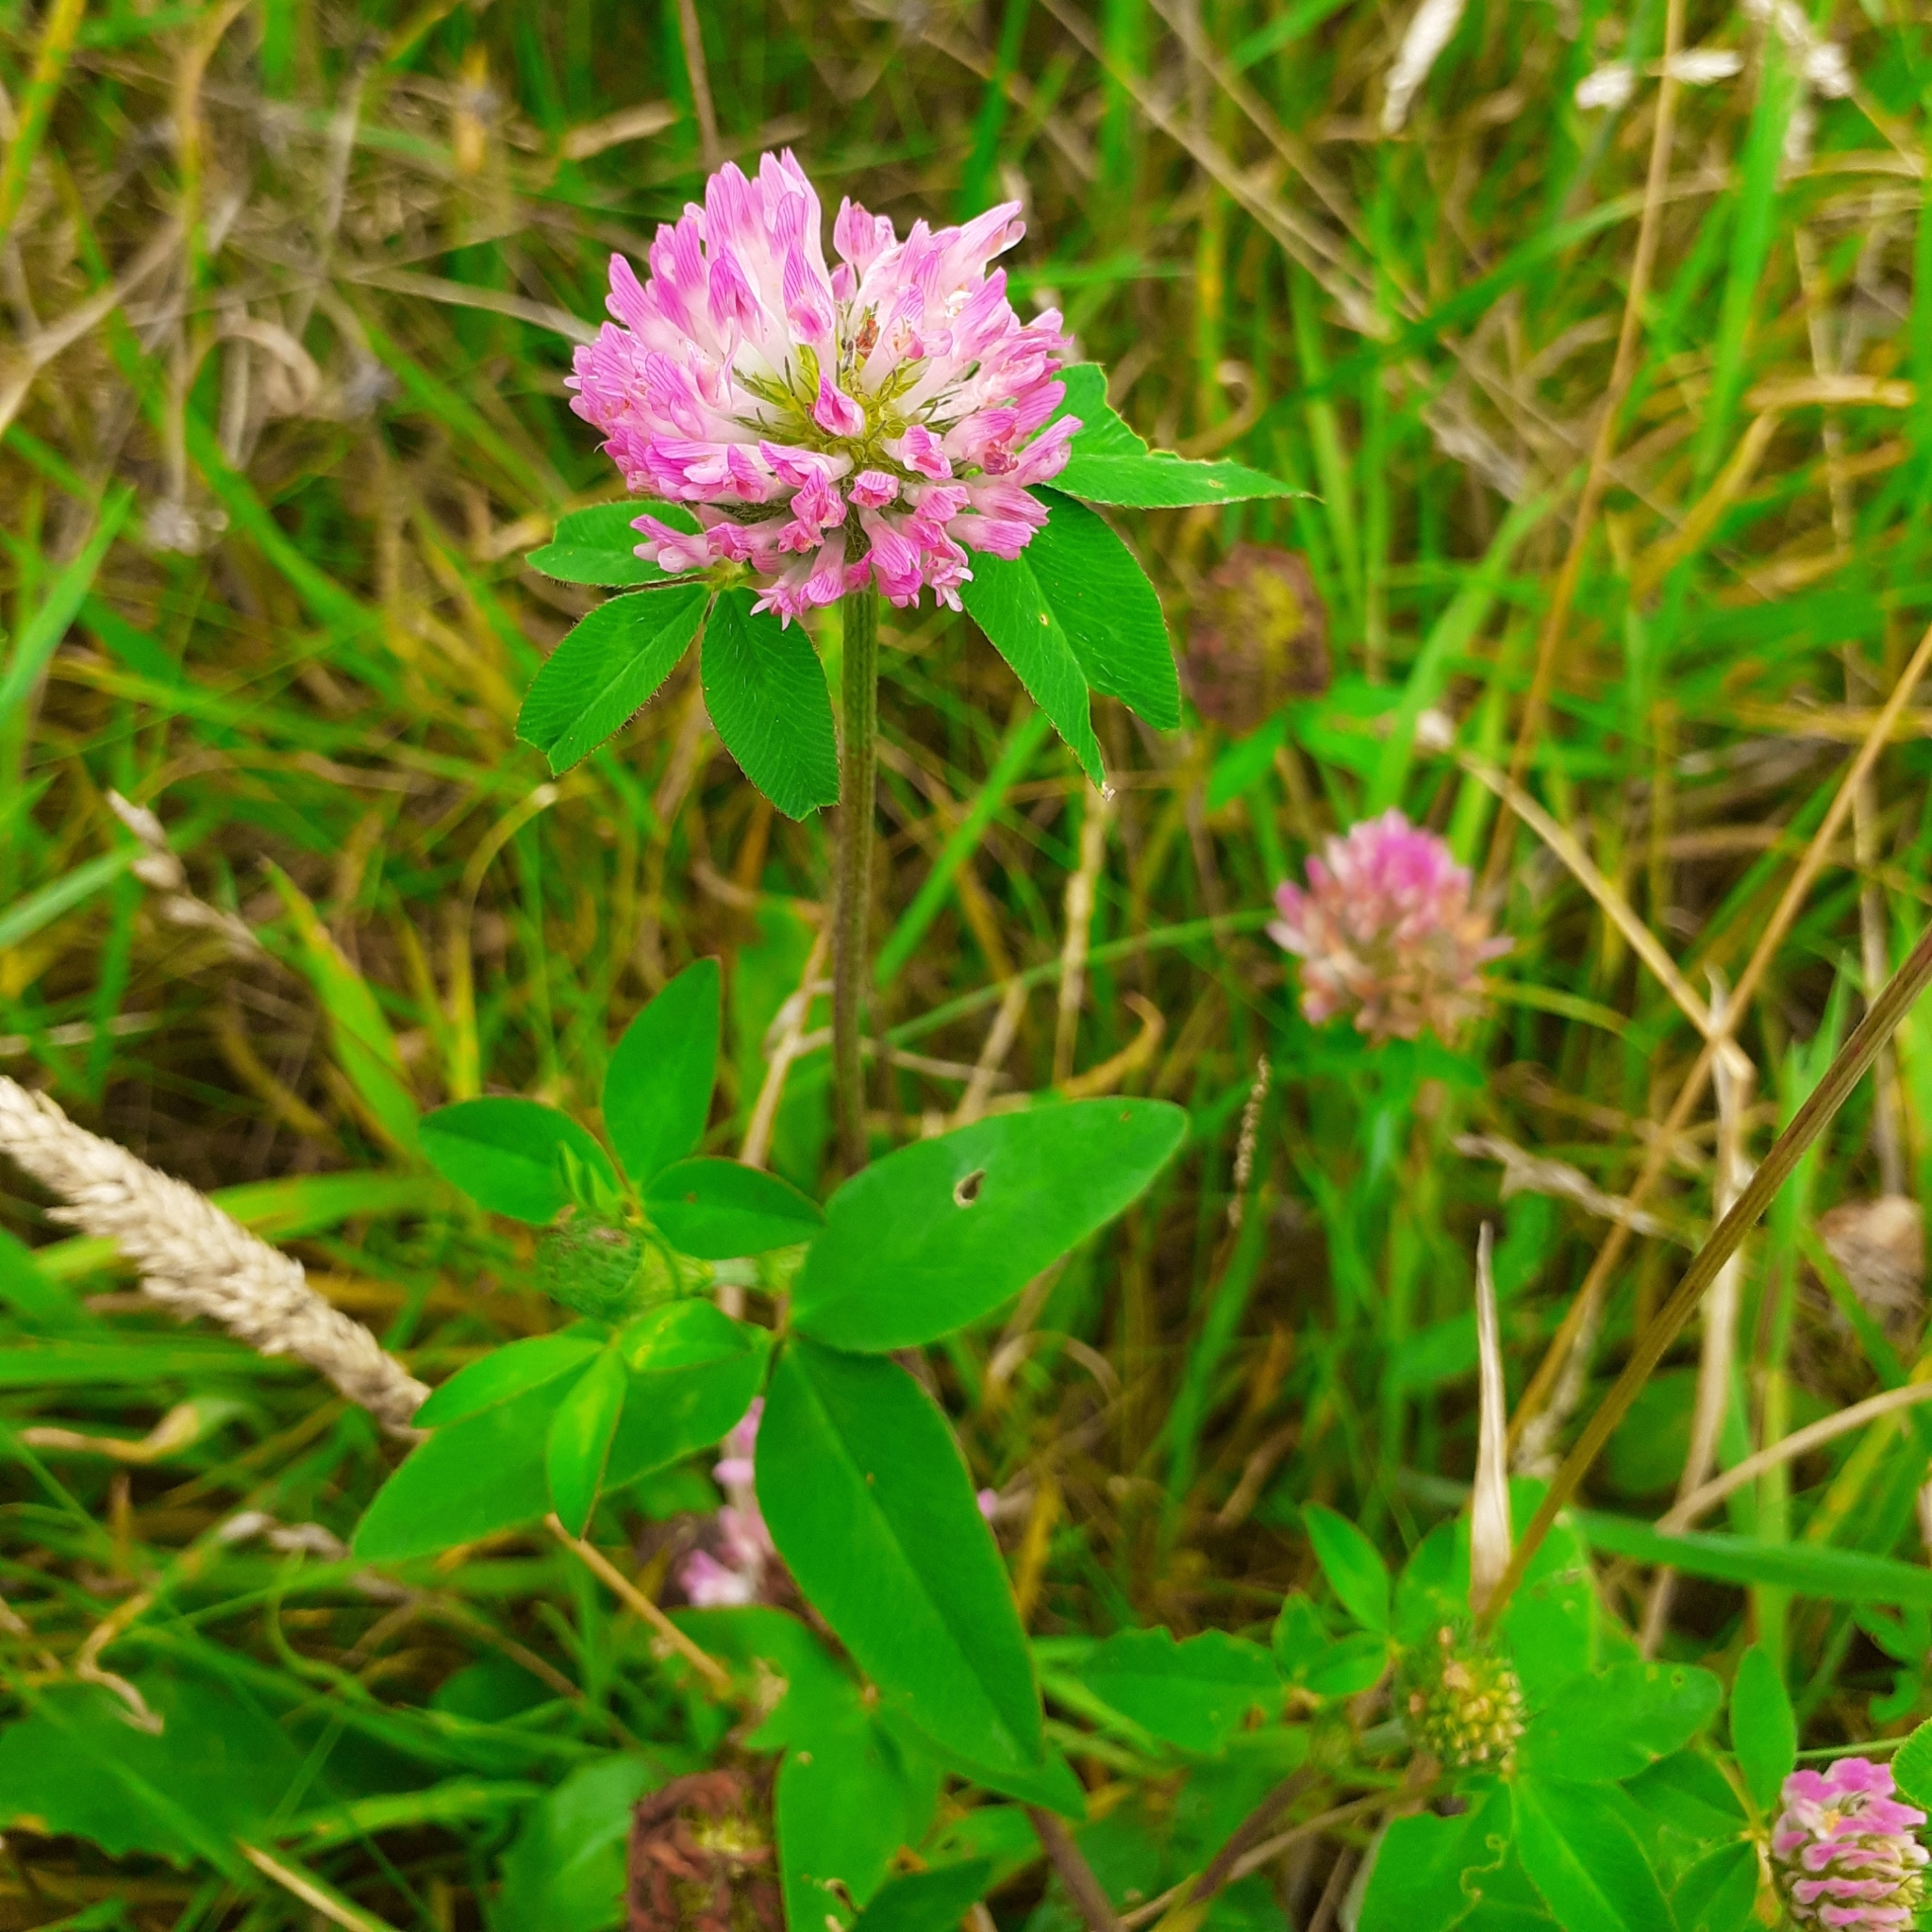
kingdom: Plantae
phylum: Tracheophyta
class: Magnoliopsida
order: Fabales
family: Fabaceae
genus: Trifolium
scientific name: Trifolium pratense
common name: Red clover
